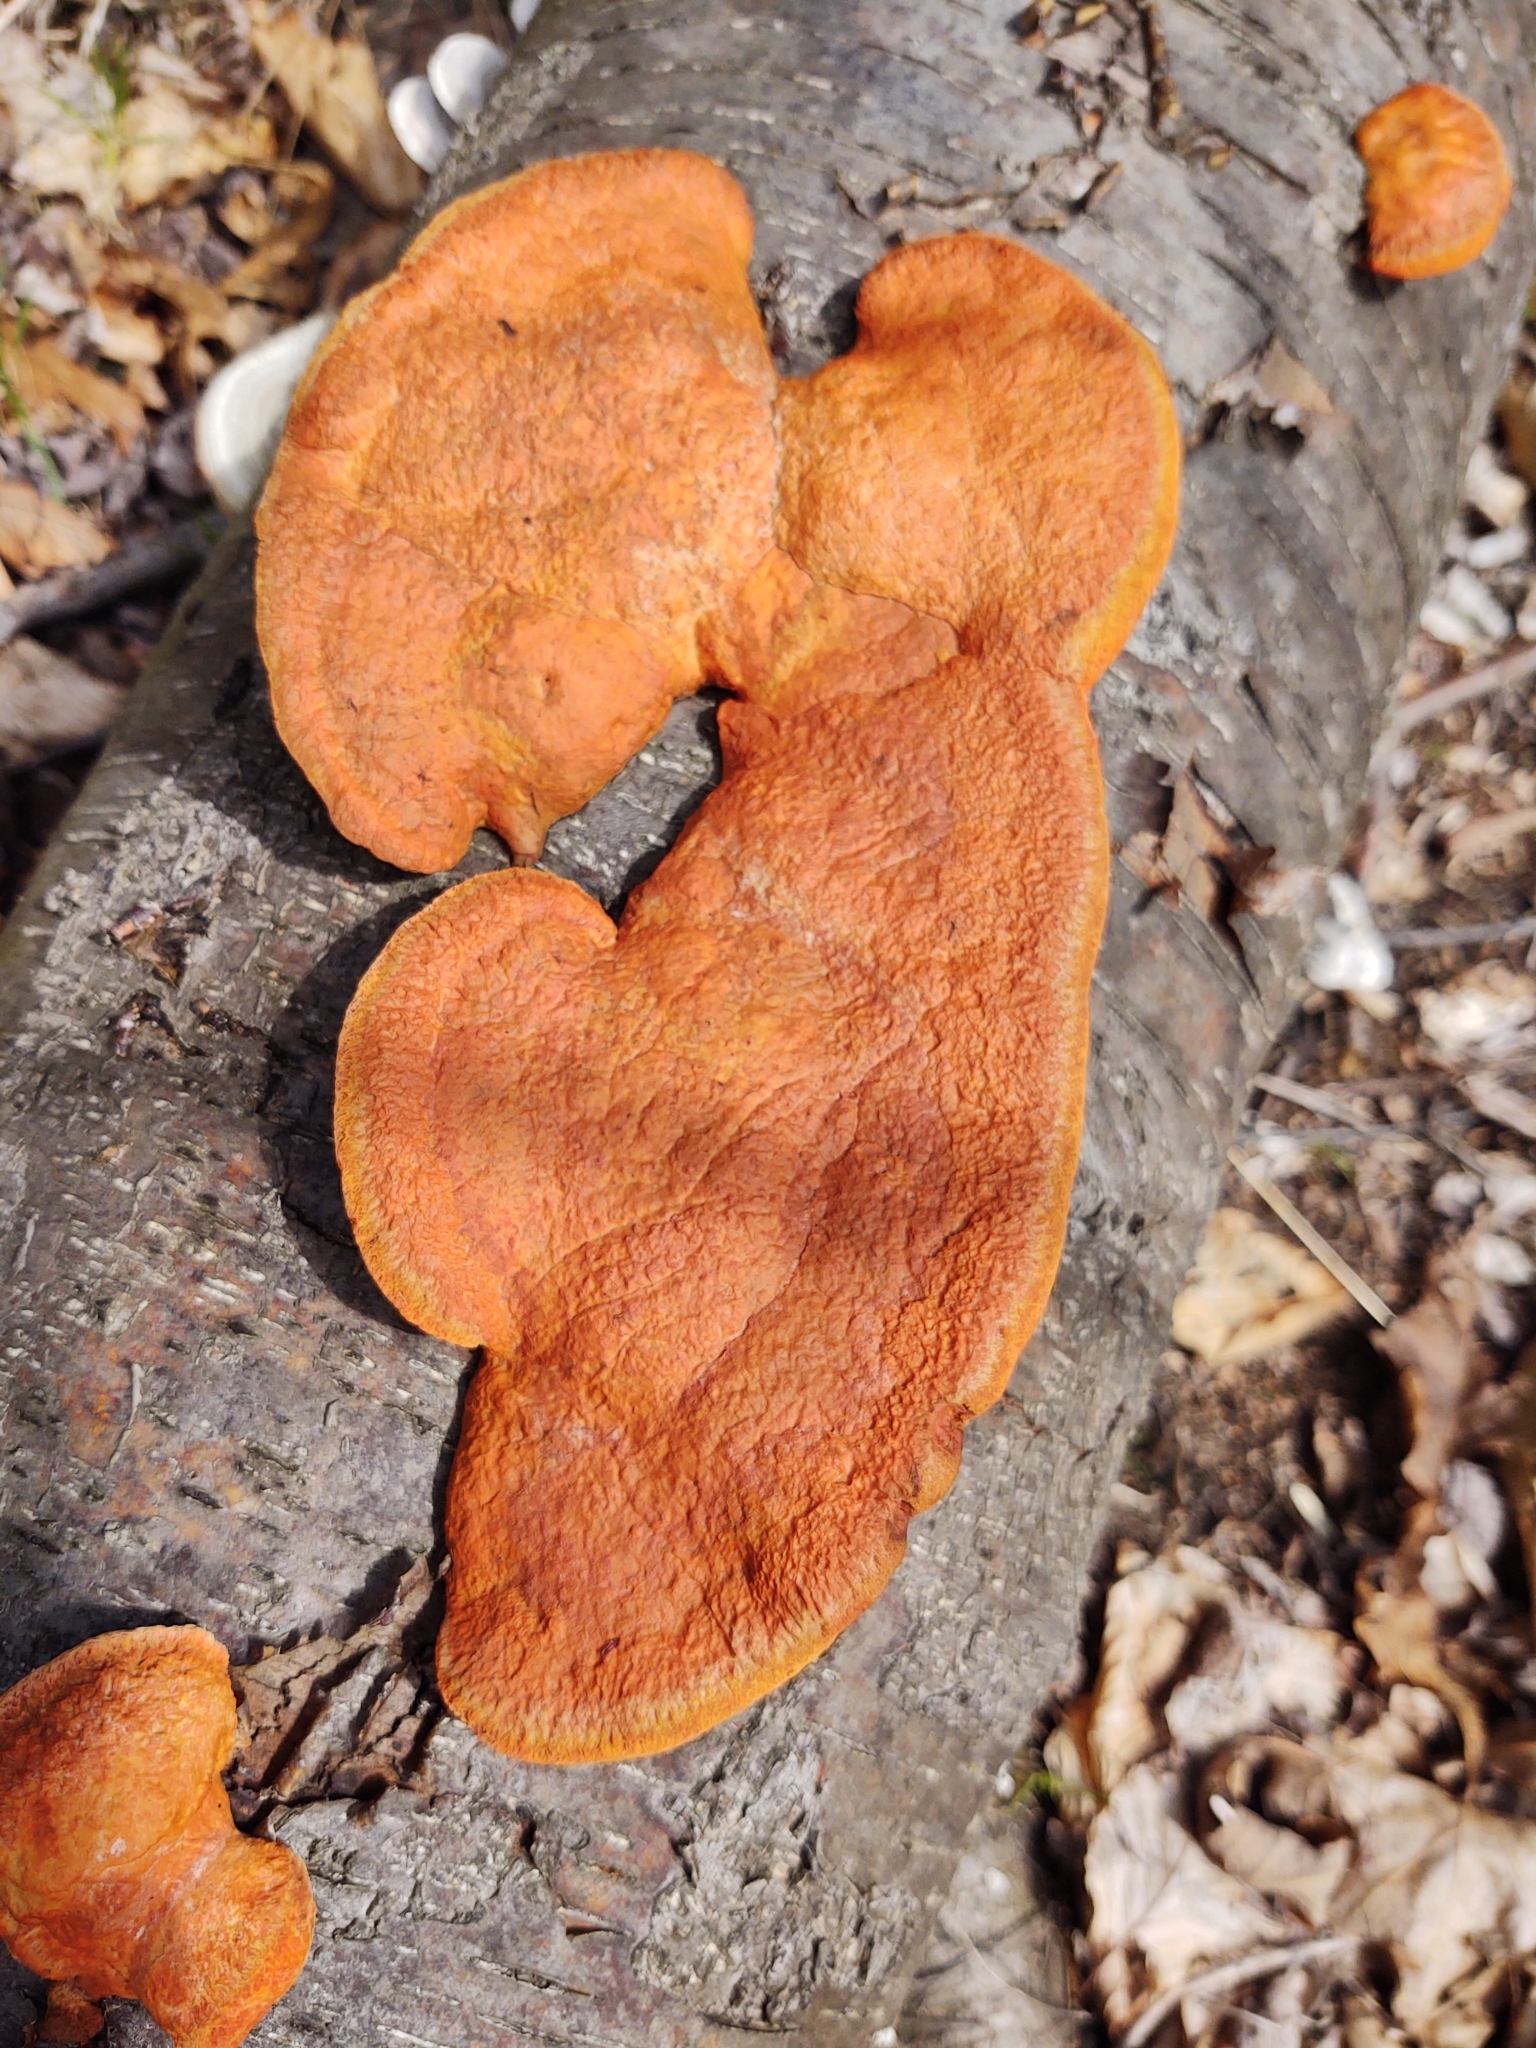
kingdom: Fungi
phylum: Basidiomycota
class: Agaricomycetes
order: Polyporales
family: Polyporaceae
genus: Trametes
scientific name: Trametes cinnabarina
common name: Northern cinnabar polypore
